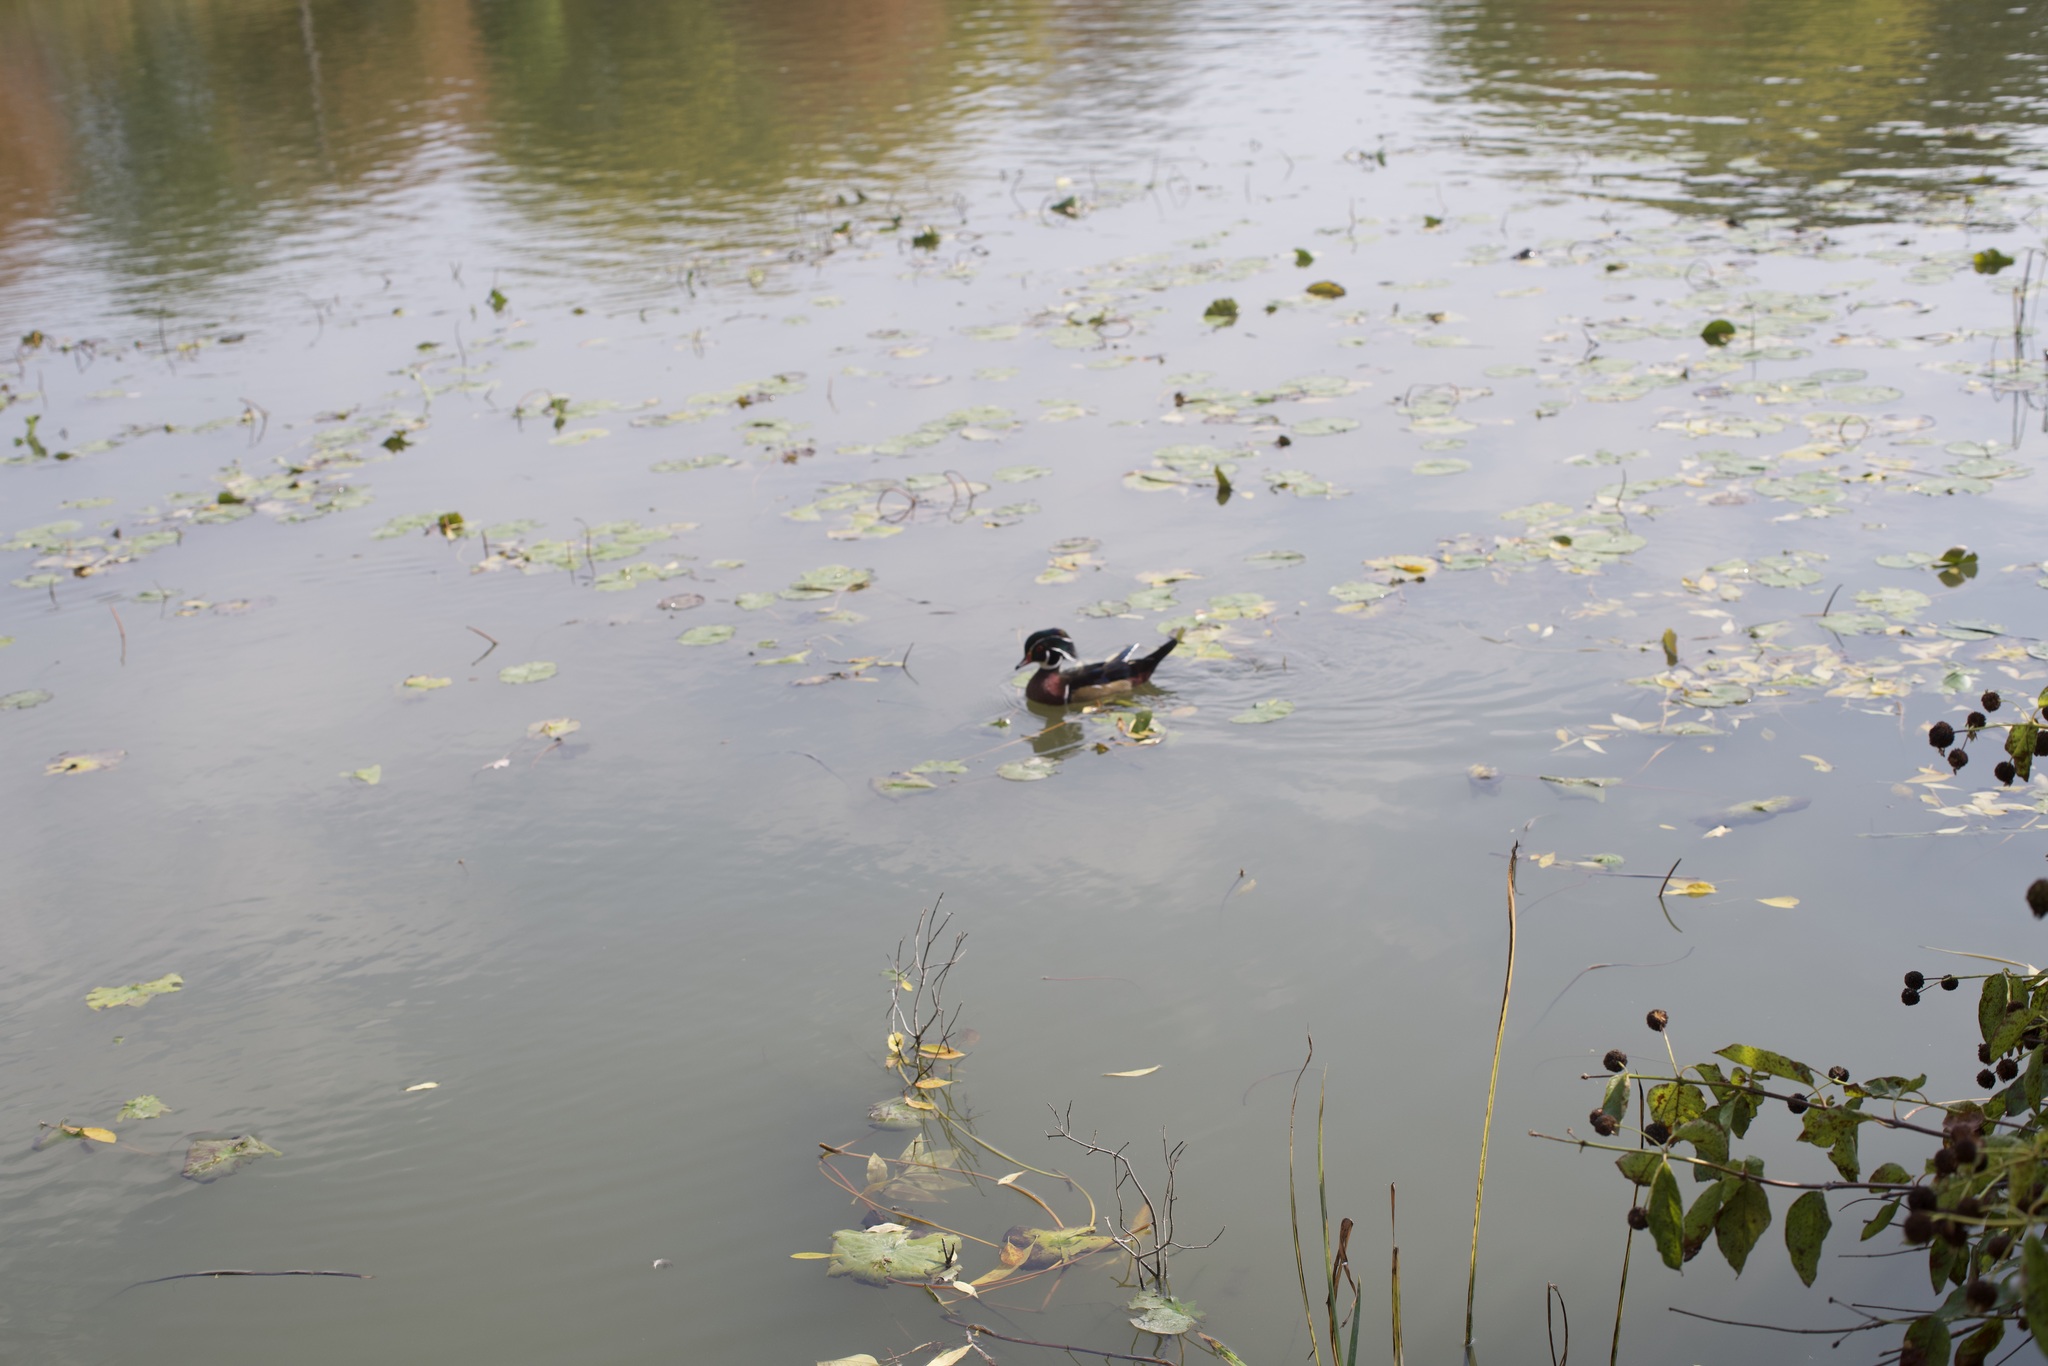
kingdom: Animalia
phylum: Chordata
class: Aves
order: Anseriformes
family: Anatidae
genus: Aix
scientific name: Aix sponsa
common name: Wood duck
